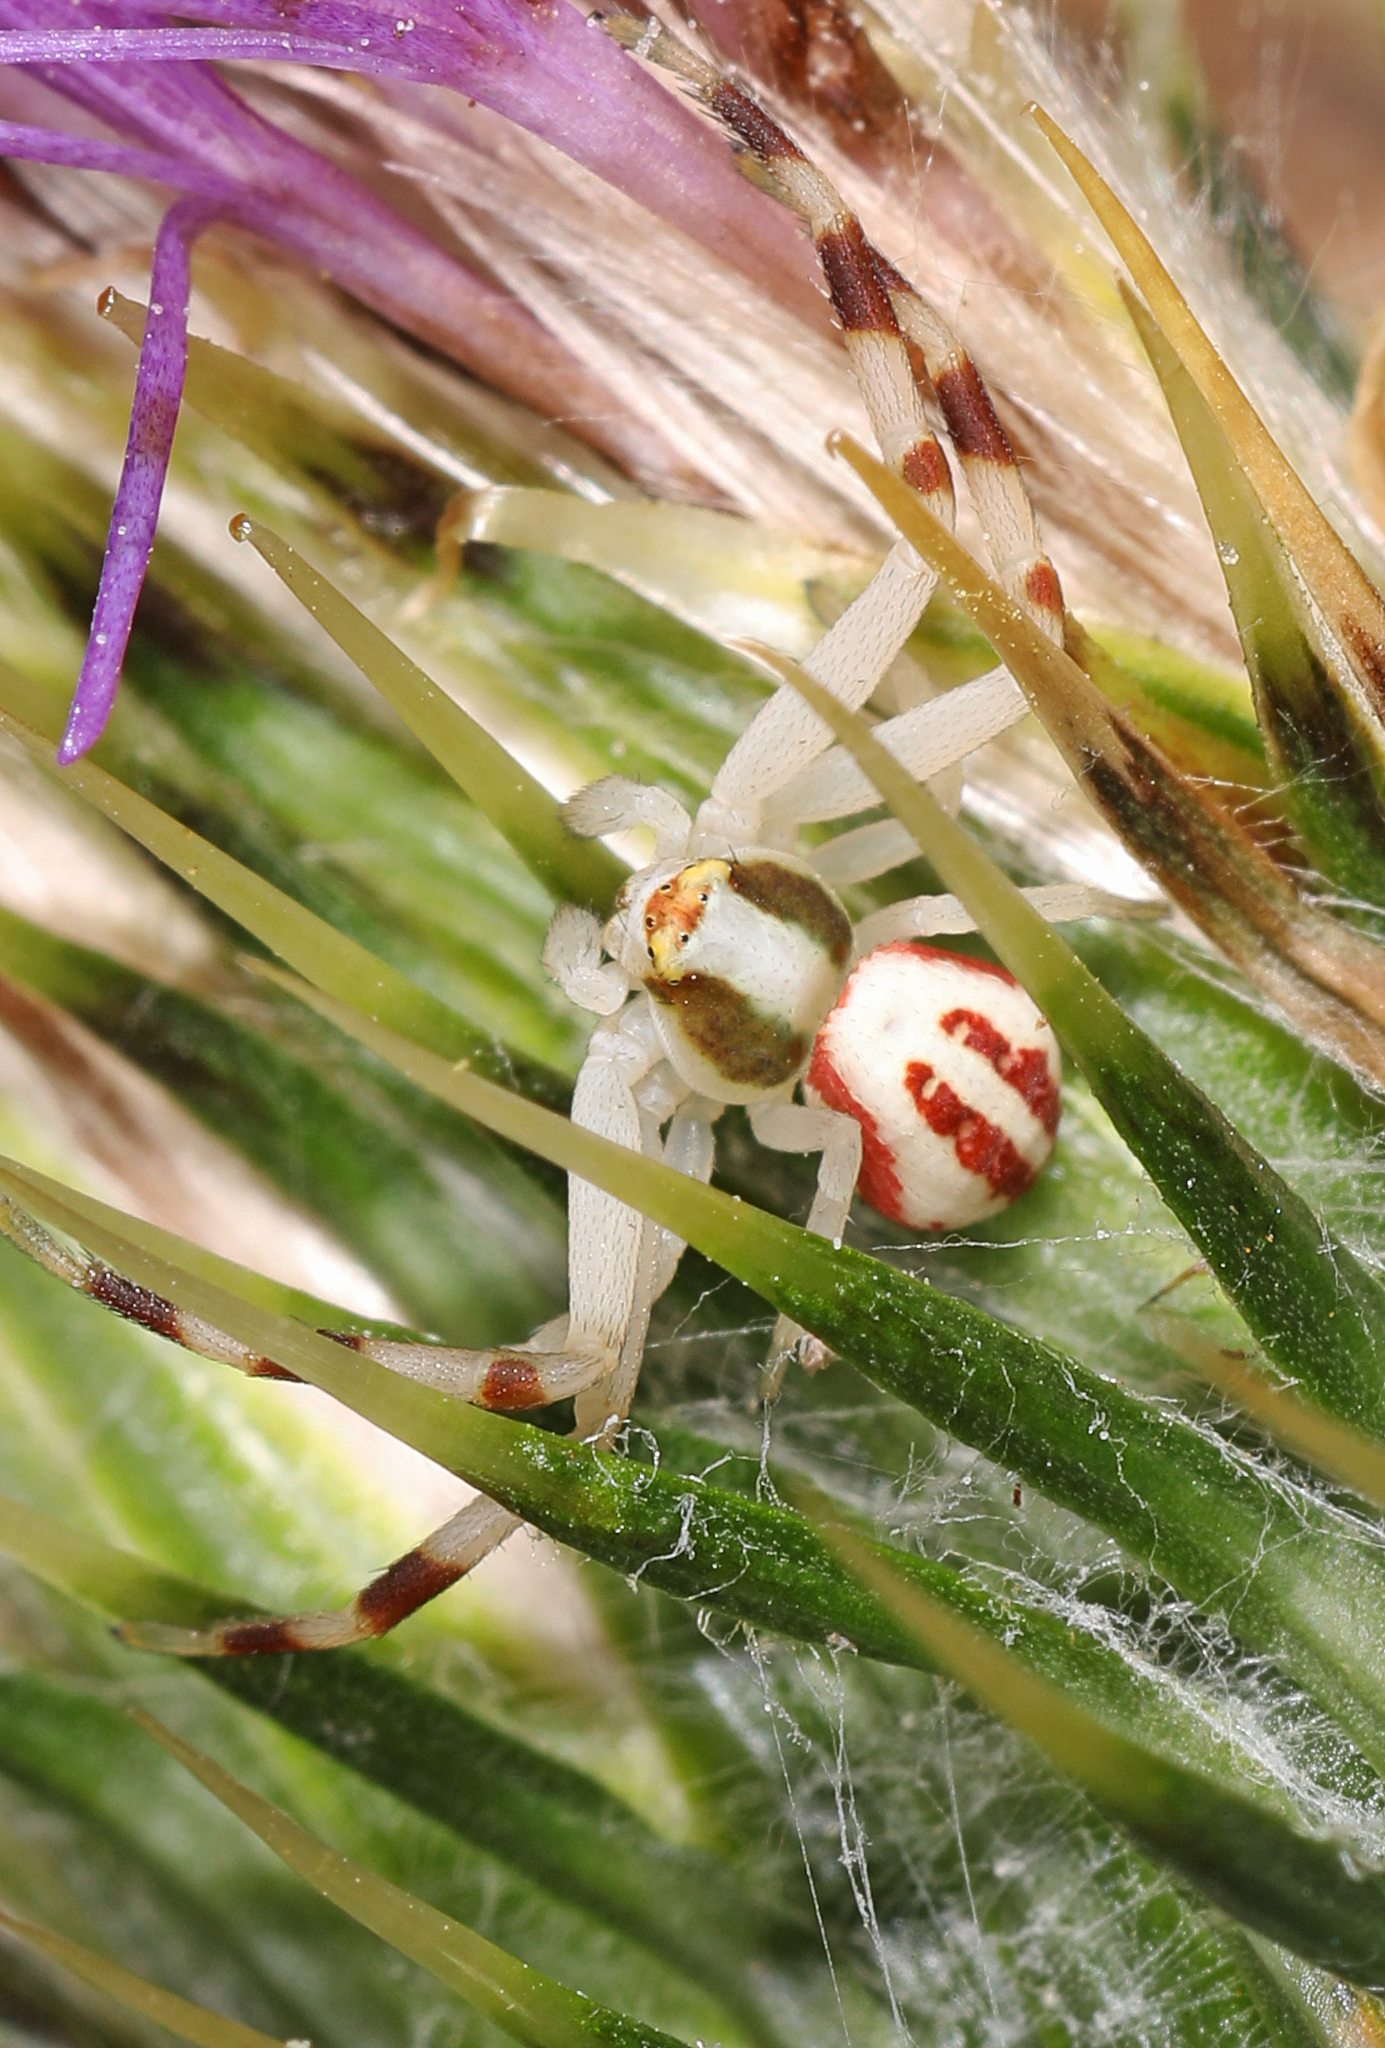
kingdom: Animalia
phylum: Arthropoda
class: Arachnida
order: Araneae
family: Thomisidae
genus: Misumena
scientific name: Misumena vatia
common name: Goldenrod crab spider
